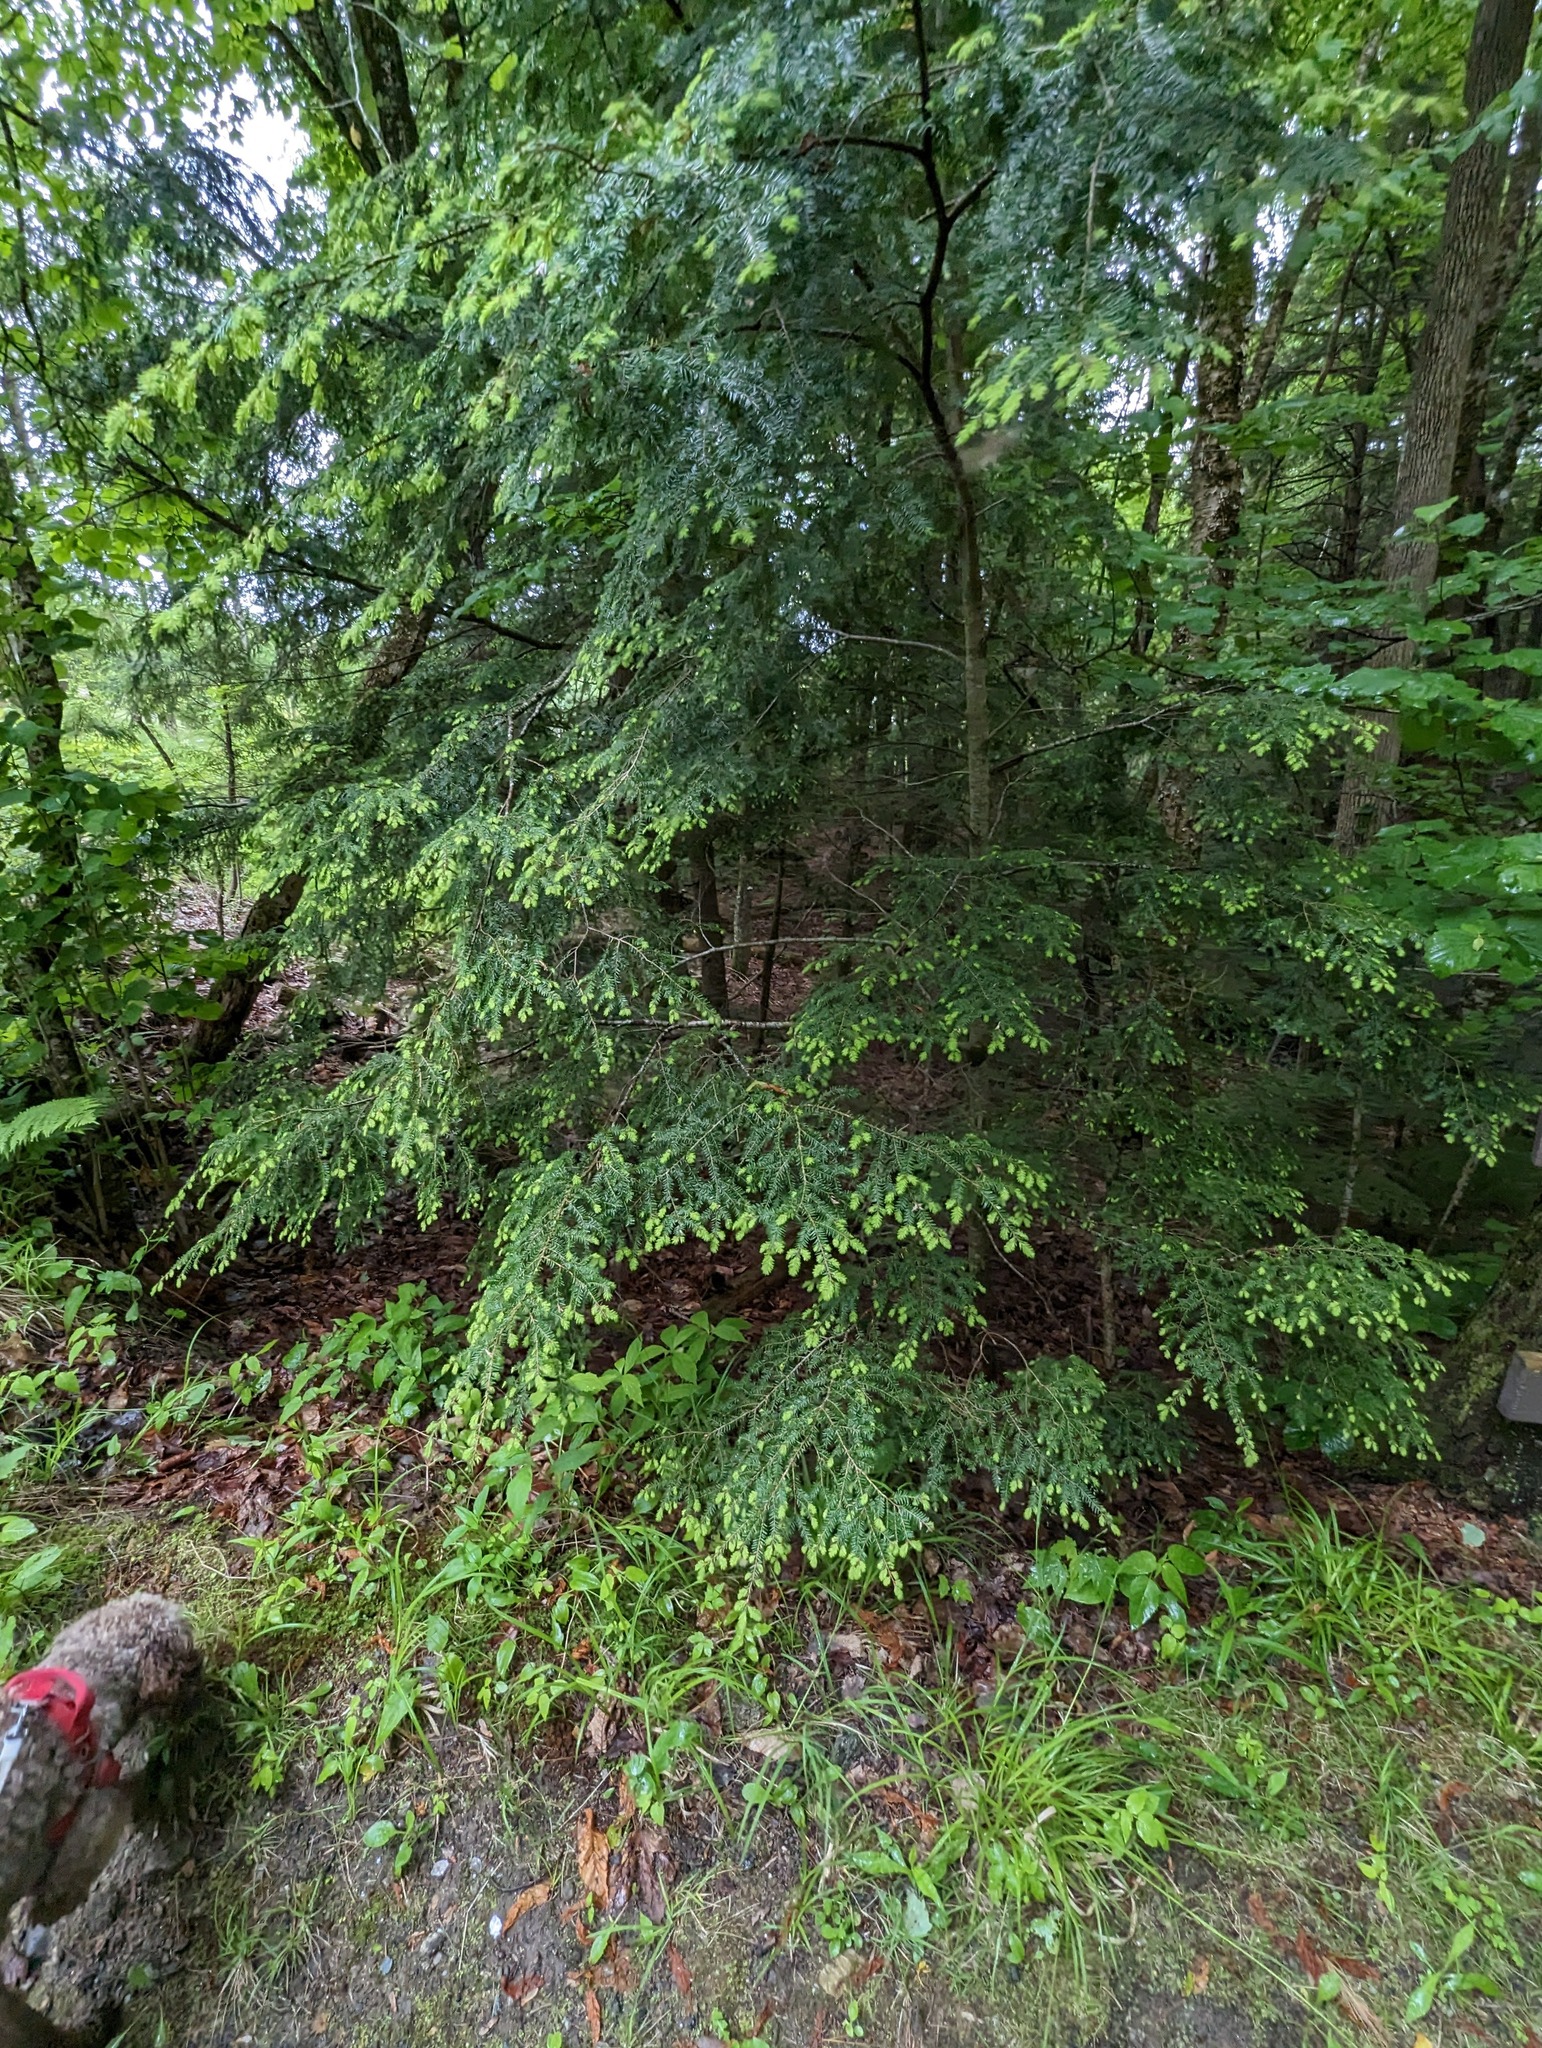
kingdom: Plantae
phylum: Tracheophyta
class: Pinopsida
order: Pinales
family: Pinaceae
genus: Tsuga
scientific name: Tsuga canadensis
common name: Eastern hemlock
